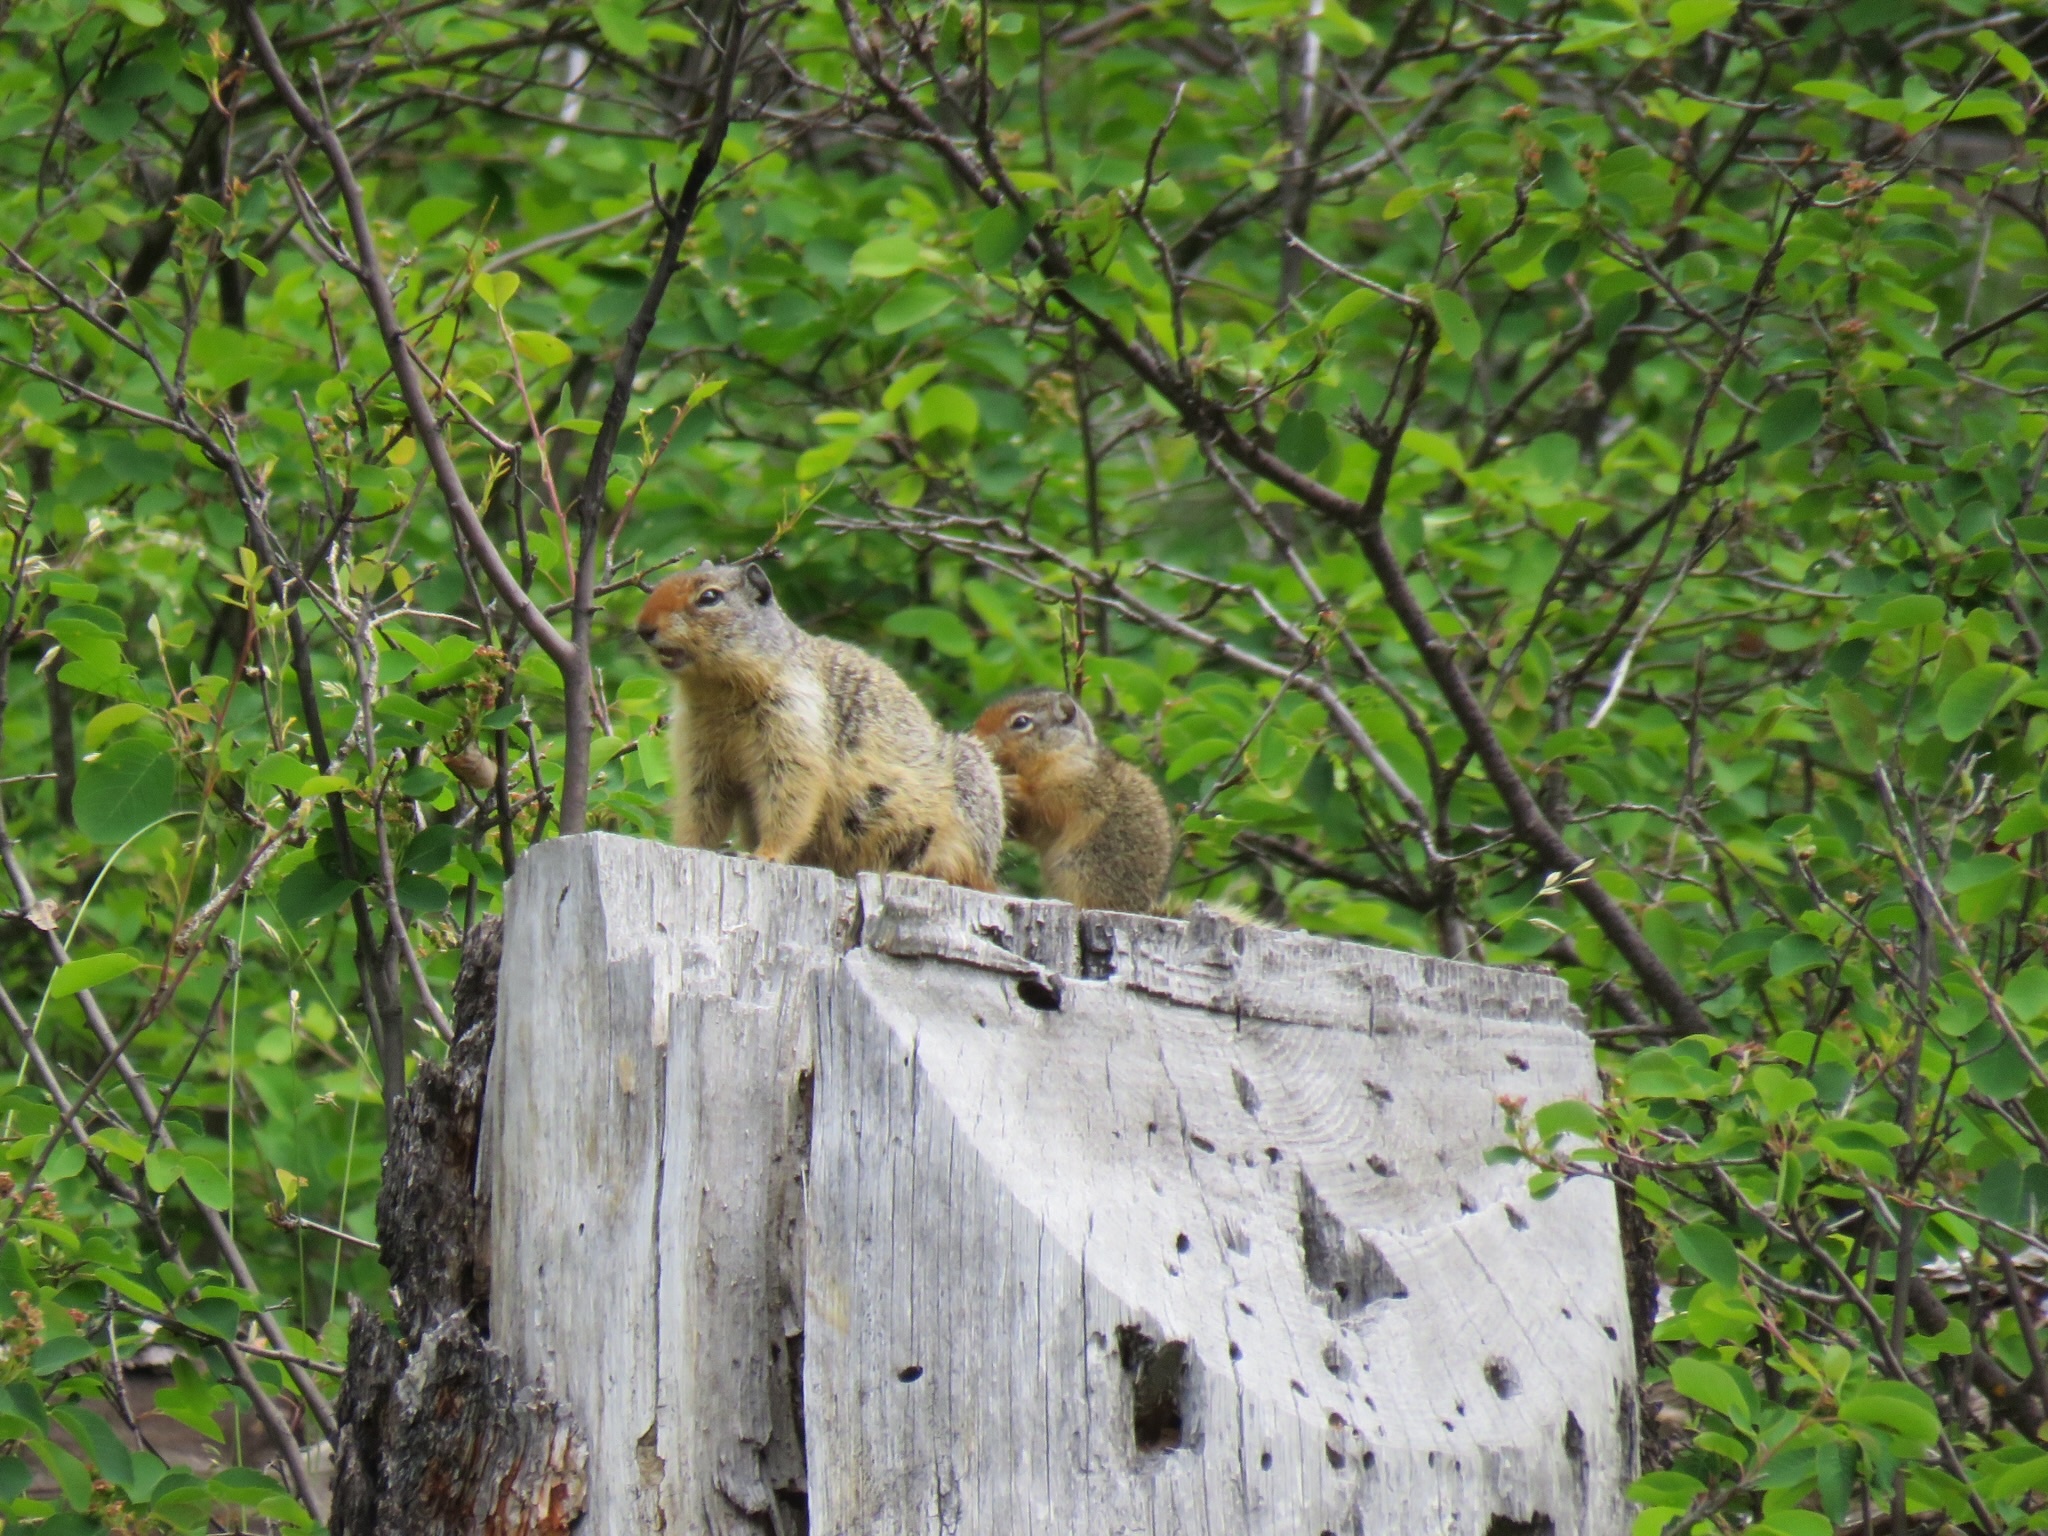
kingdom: Animalia
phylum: Chordata
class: Mammalia
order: Rodentia
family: Sciuridae
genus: Urocitellus
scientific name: Urocitellus columbianus
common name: Columbian ground squirrel
